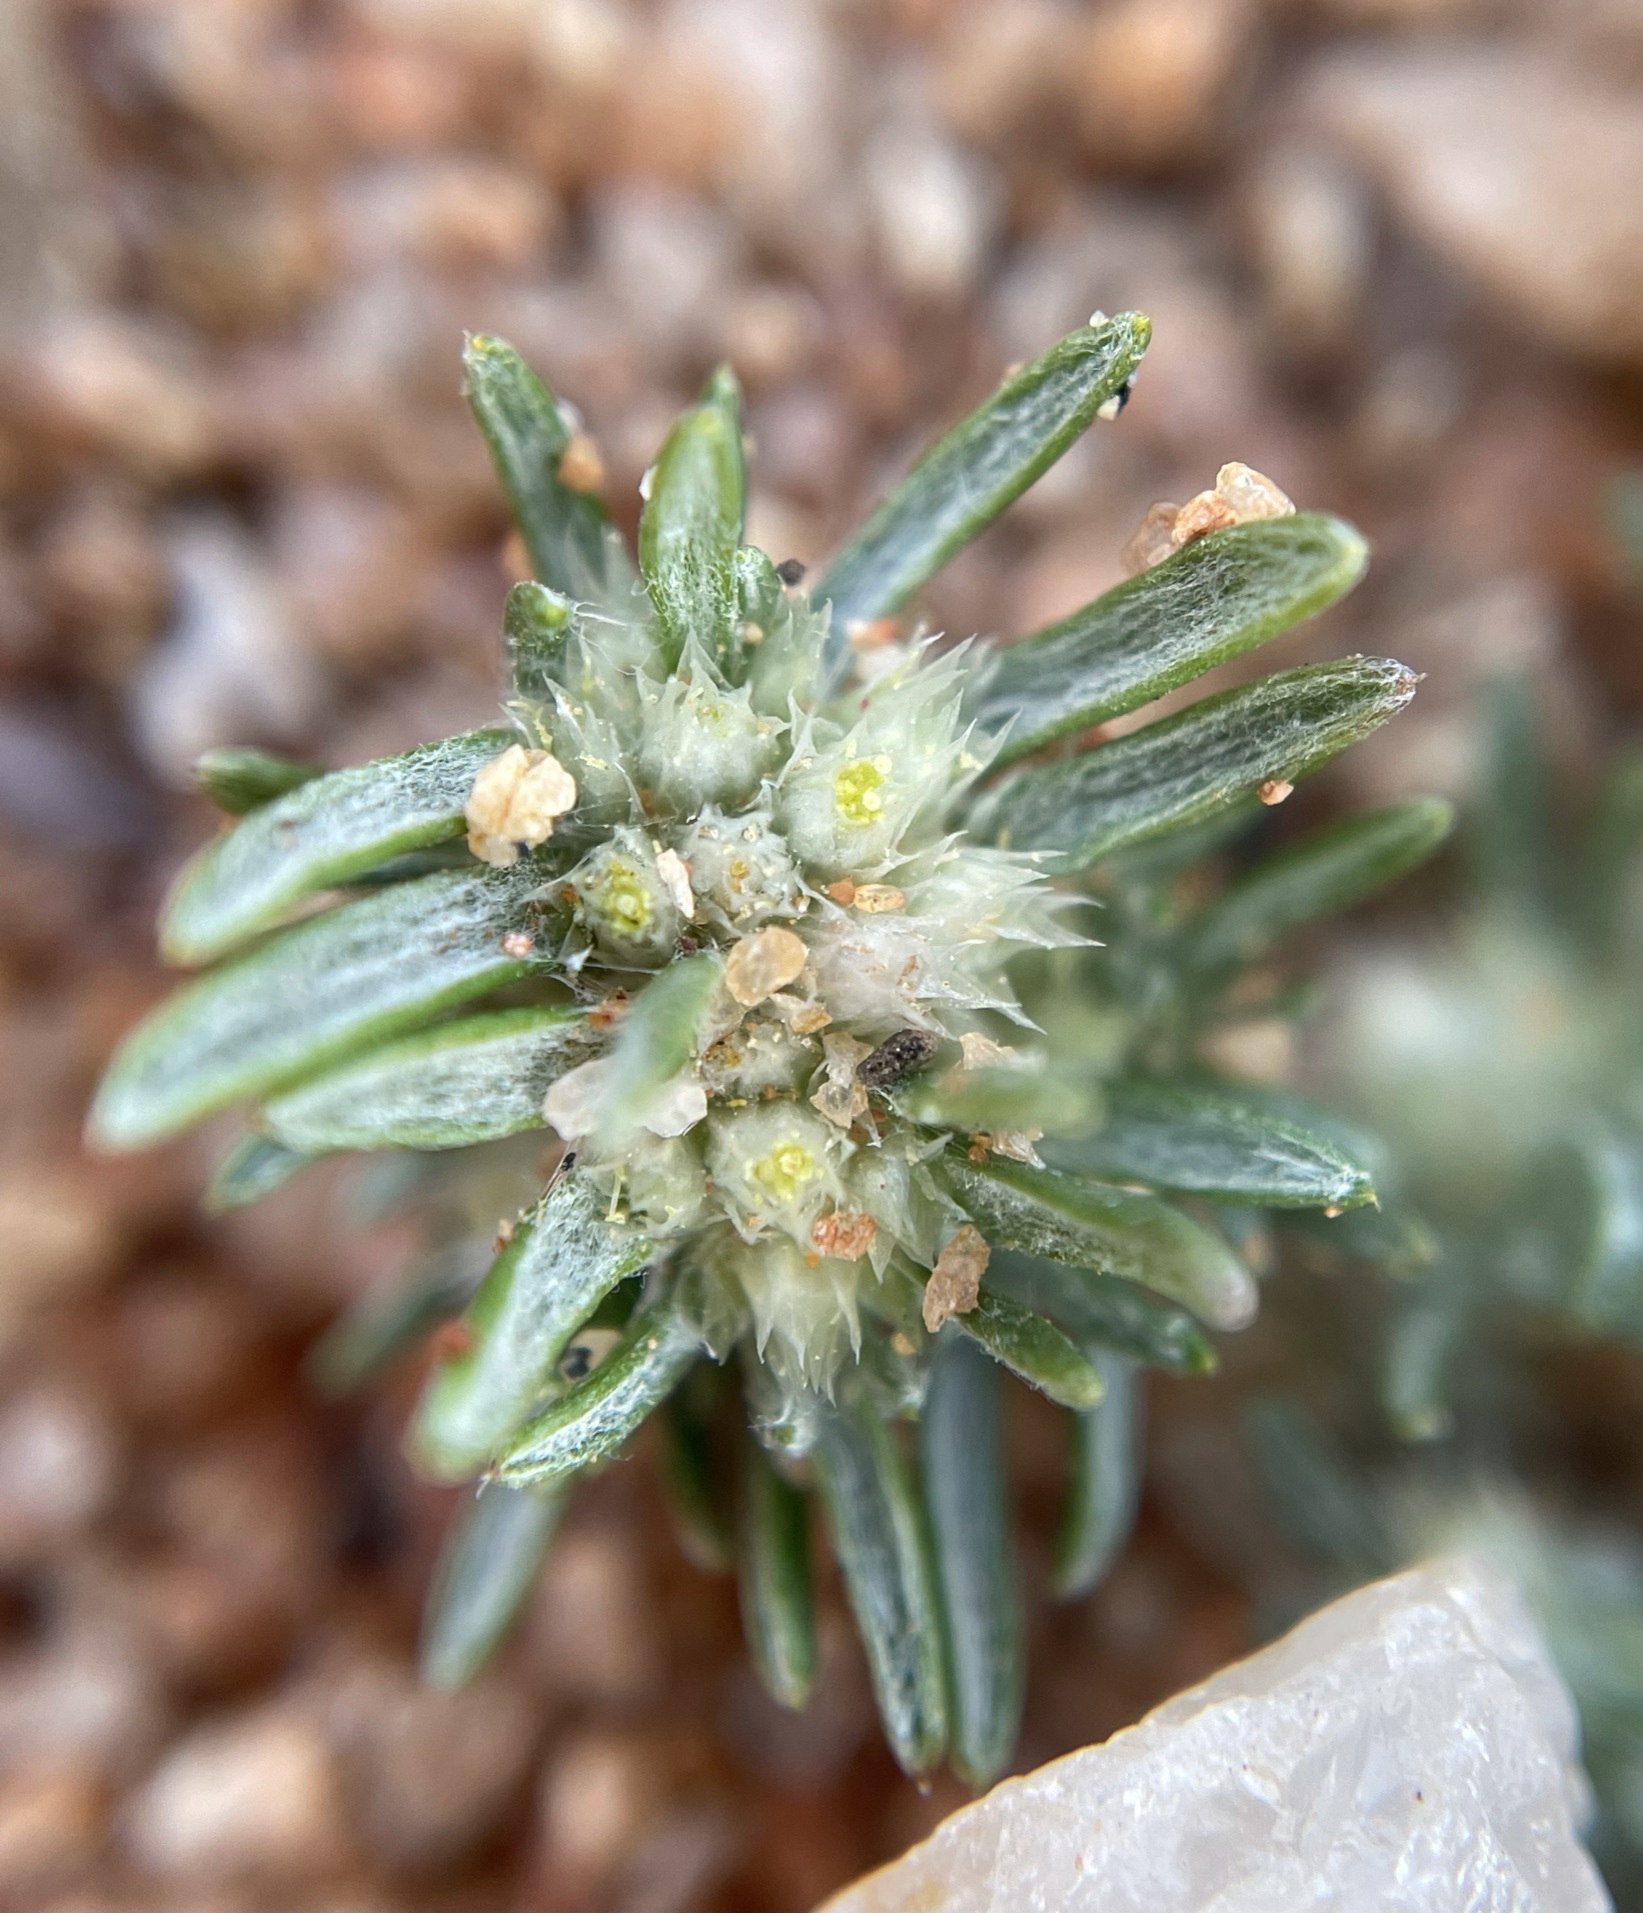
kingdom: Plantae
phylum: Tracheophyta
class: Magnoliopsida
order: Asterales
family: Asteraceae
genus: Ifloga
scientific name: Ifloga paronychioides
